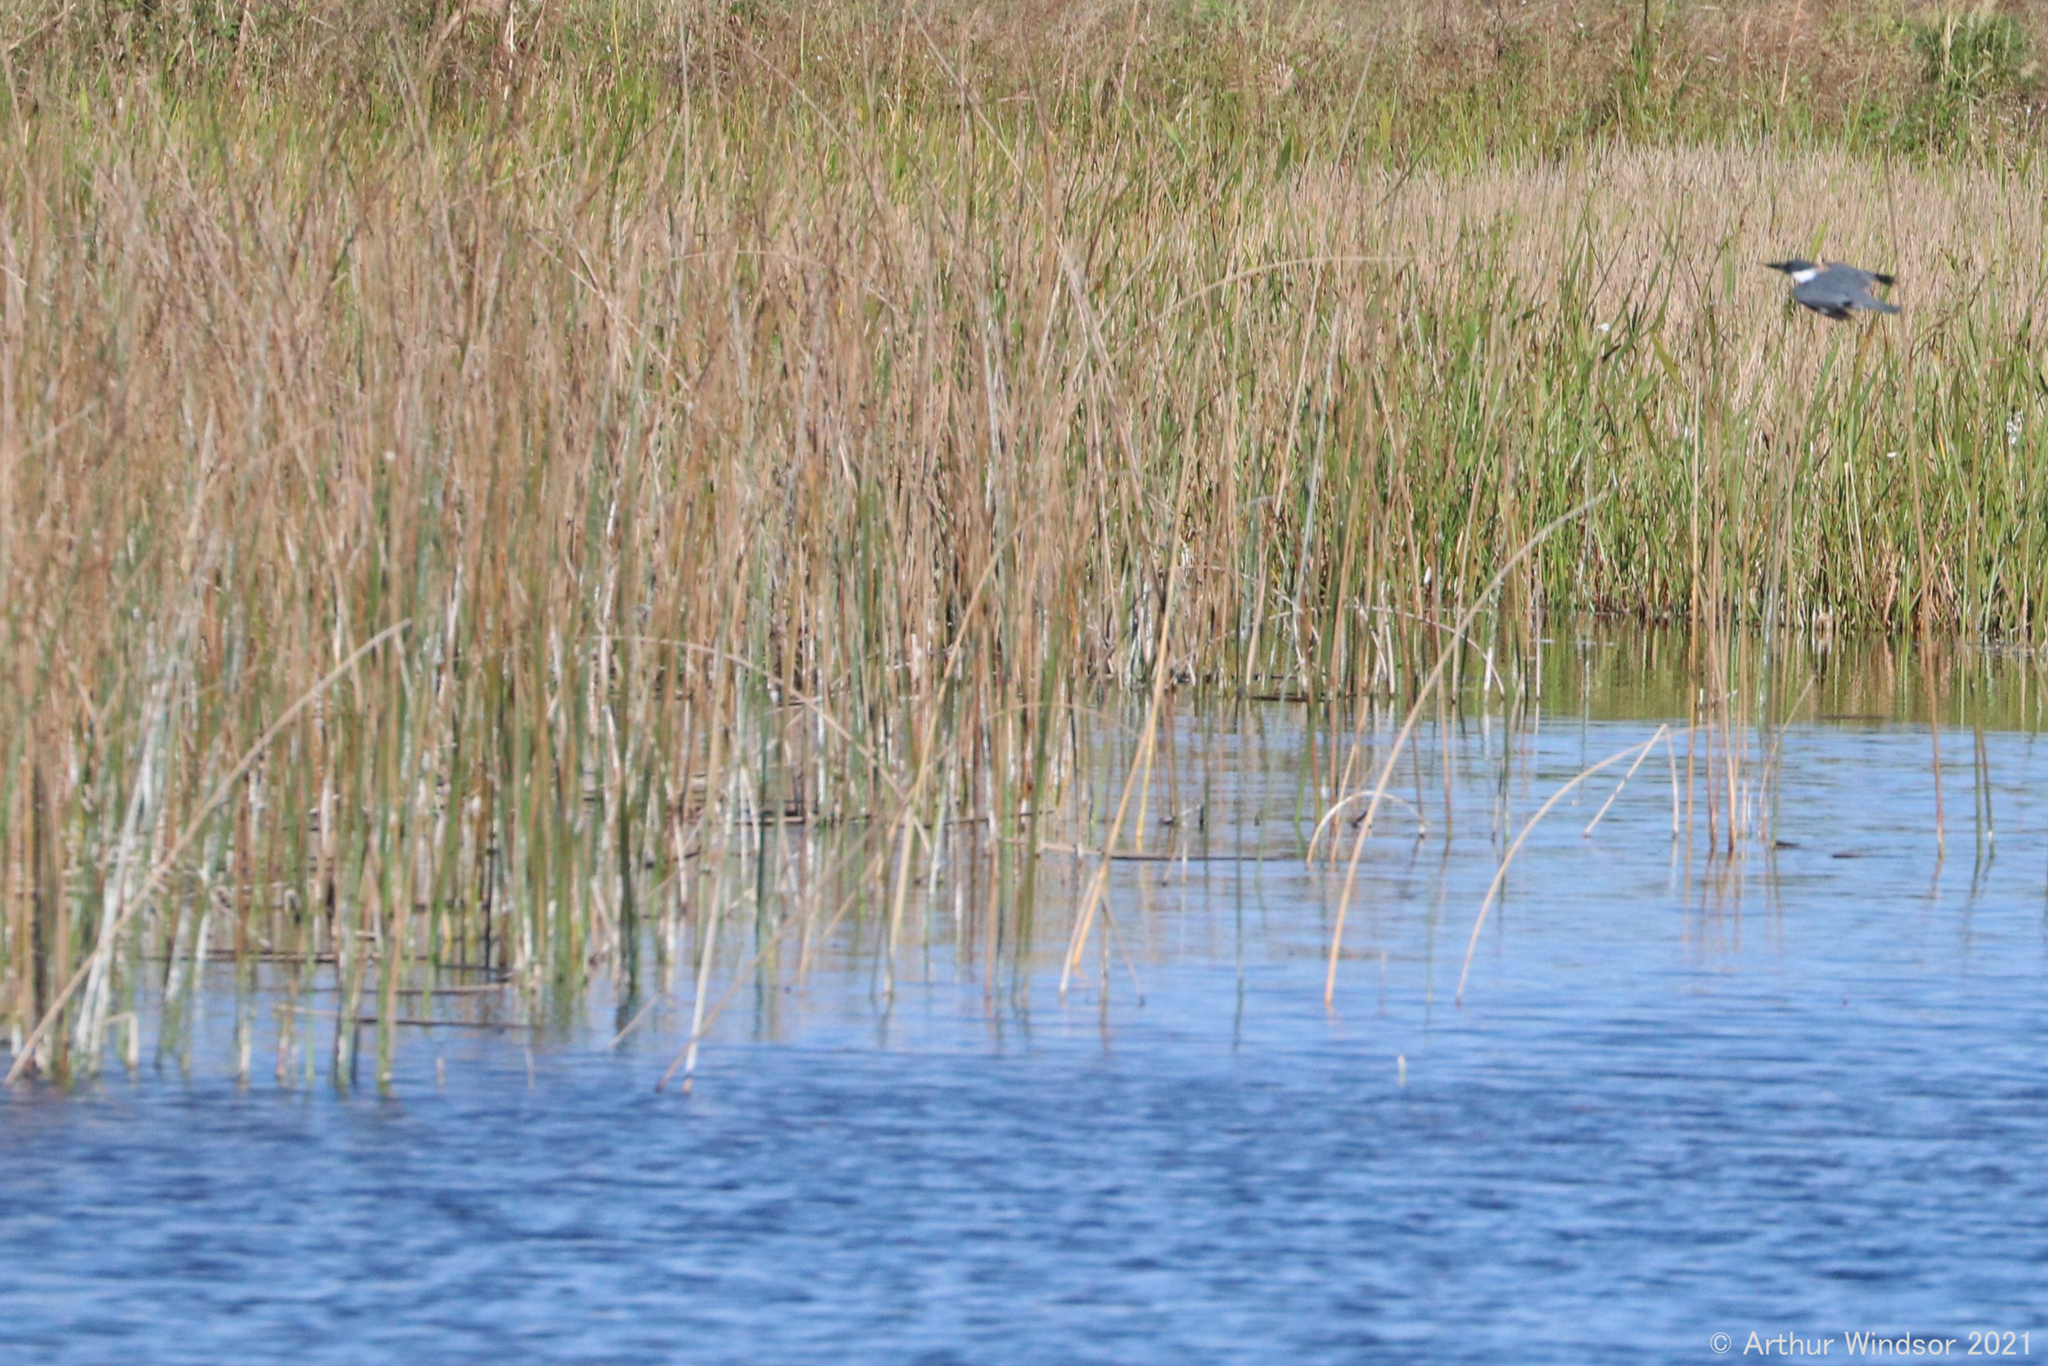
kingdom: Animalia
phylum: Chordata
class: Aves
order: Coraciiformes
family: Alcedinidae
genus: Megaceryle
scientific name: Megaceryle alcyon
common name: Belted kingfisher
